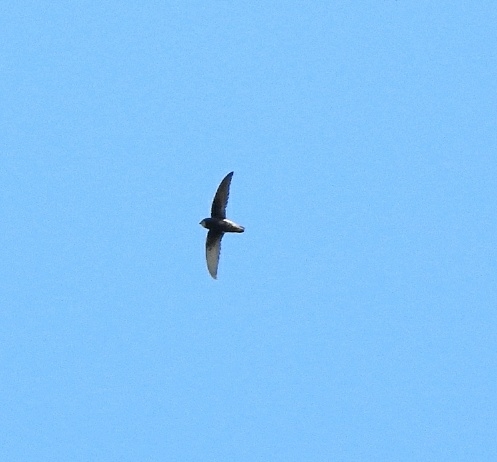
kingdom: Animalia
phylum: Chordata
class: Aves
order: Apodiformes
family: Apodidae
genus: Apus
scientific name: Apus affinis
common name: Little swift
